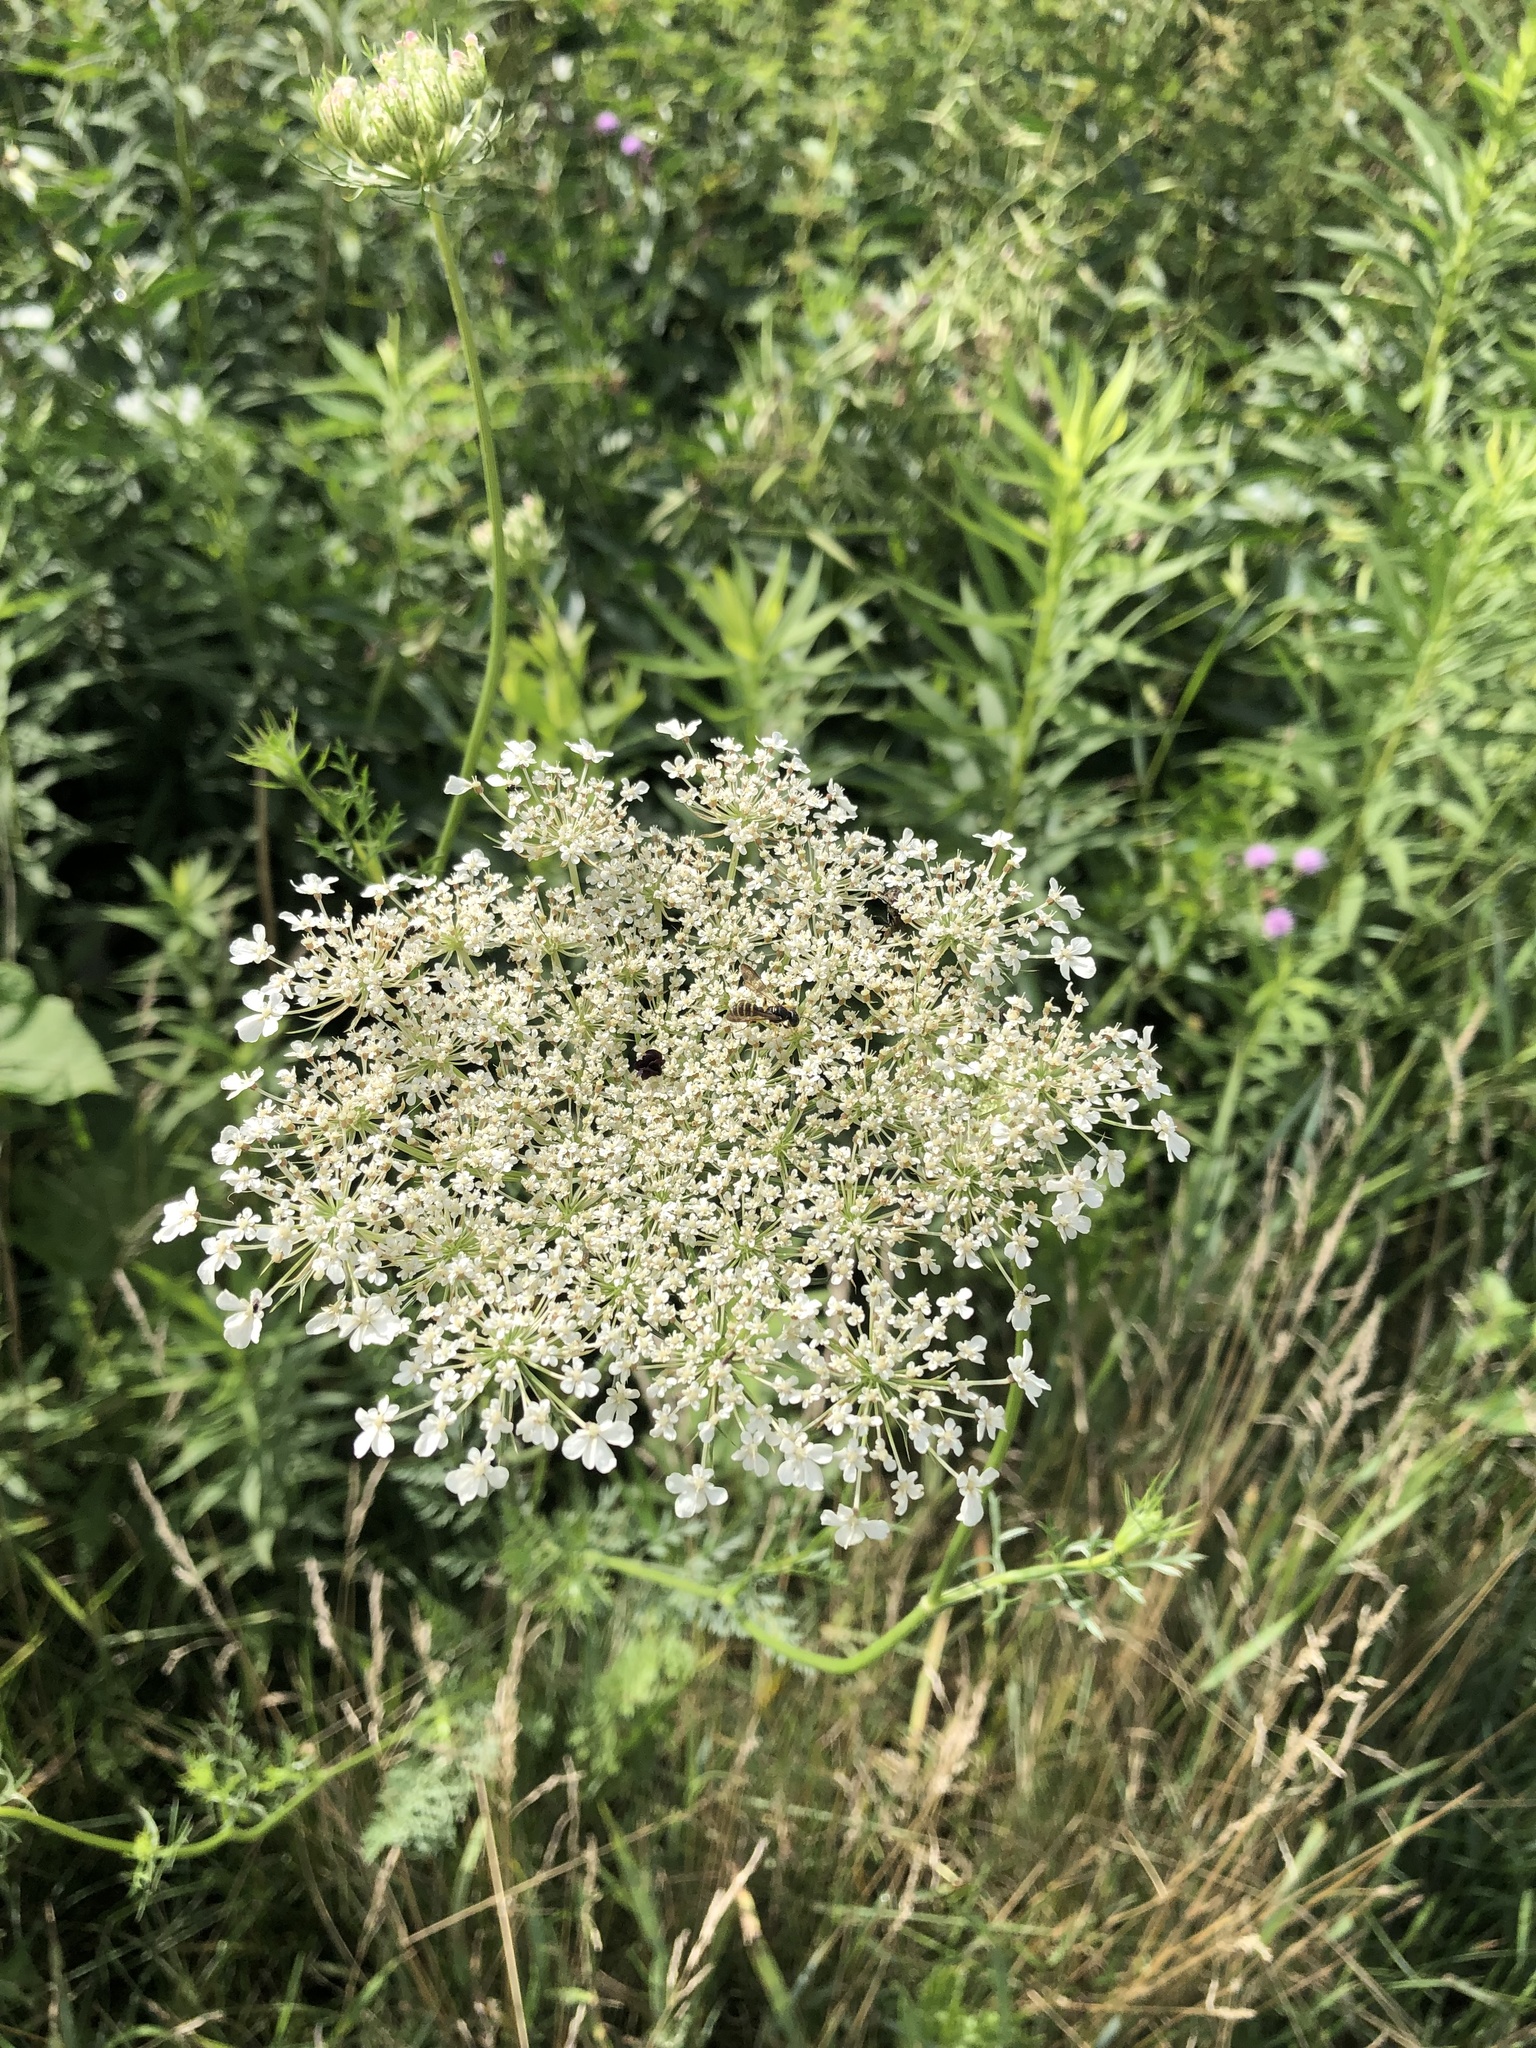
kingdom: Plantae
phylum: Tracheophyta
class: Magnoliopsida
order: Apiales
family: Apiaceae
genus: Daucus
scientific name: Daucus carota
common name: Wild carrot
